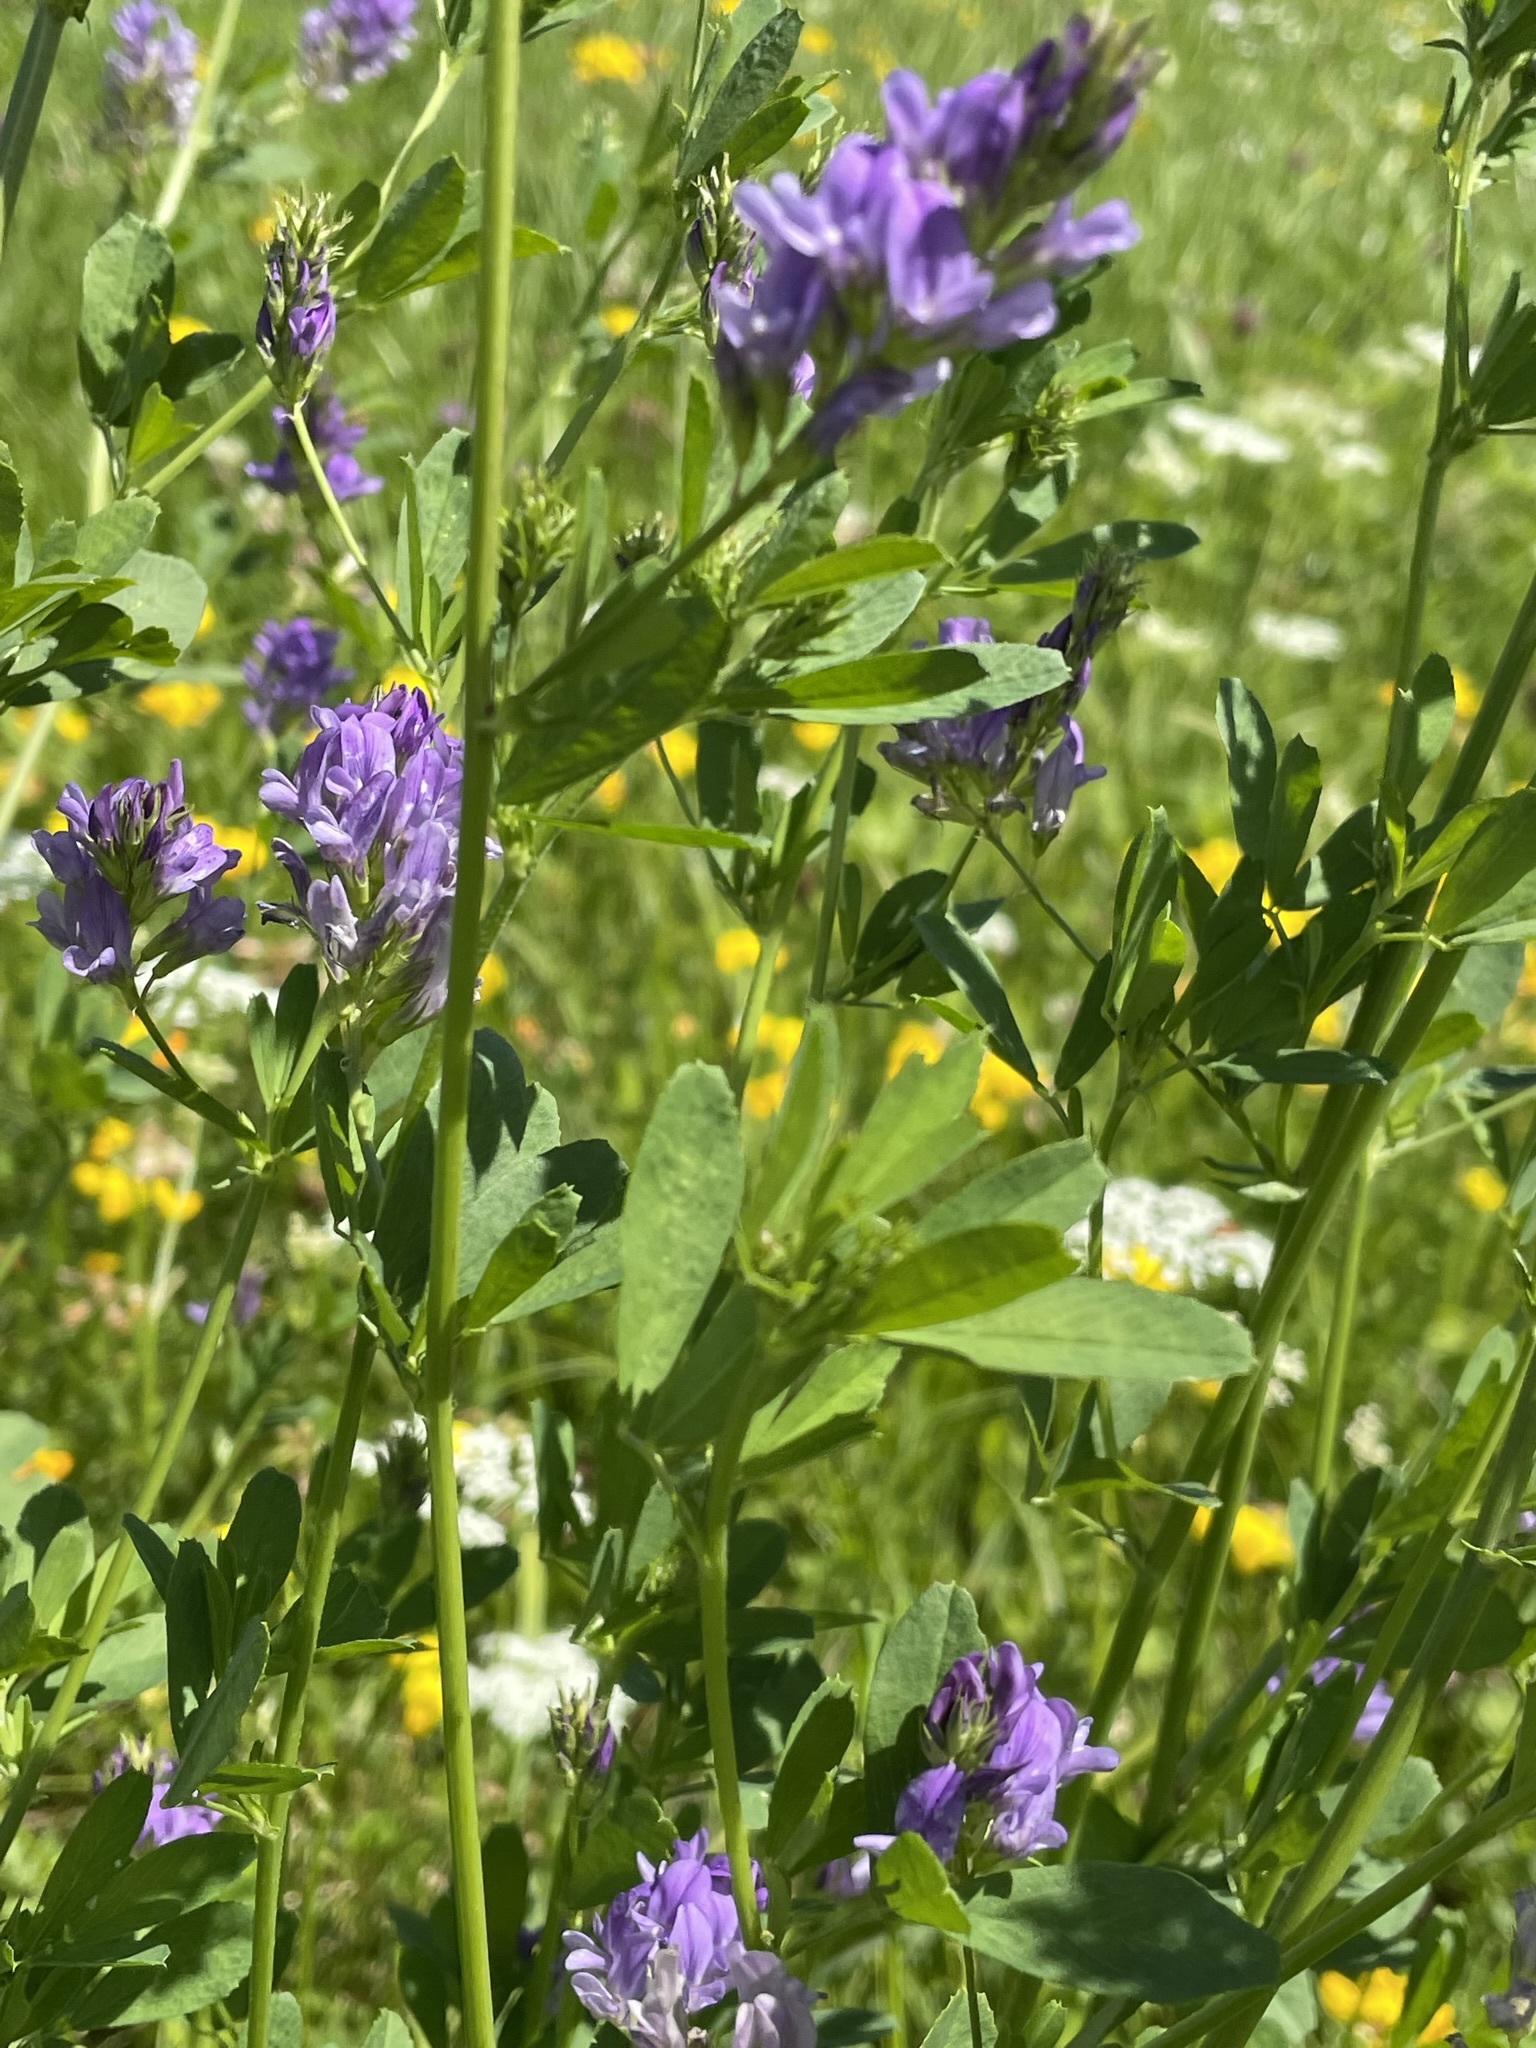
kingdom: Plantae
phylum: Tracheophyta
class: Magnoliopsida
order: Fabales
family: Fabaceae
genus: Medicago
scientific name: Medicago sativa
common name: Alfalfa
